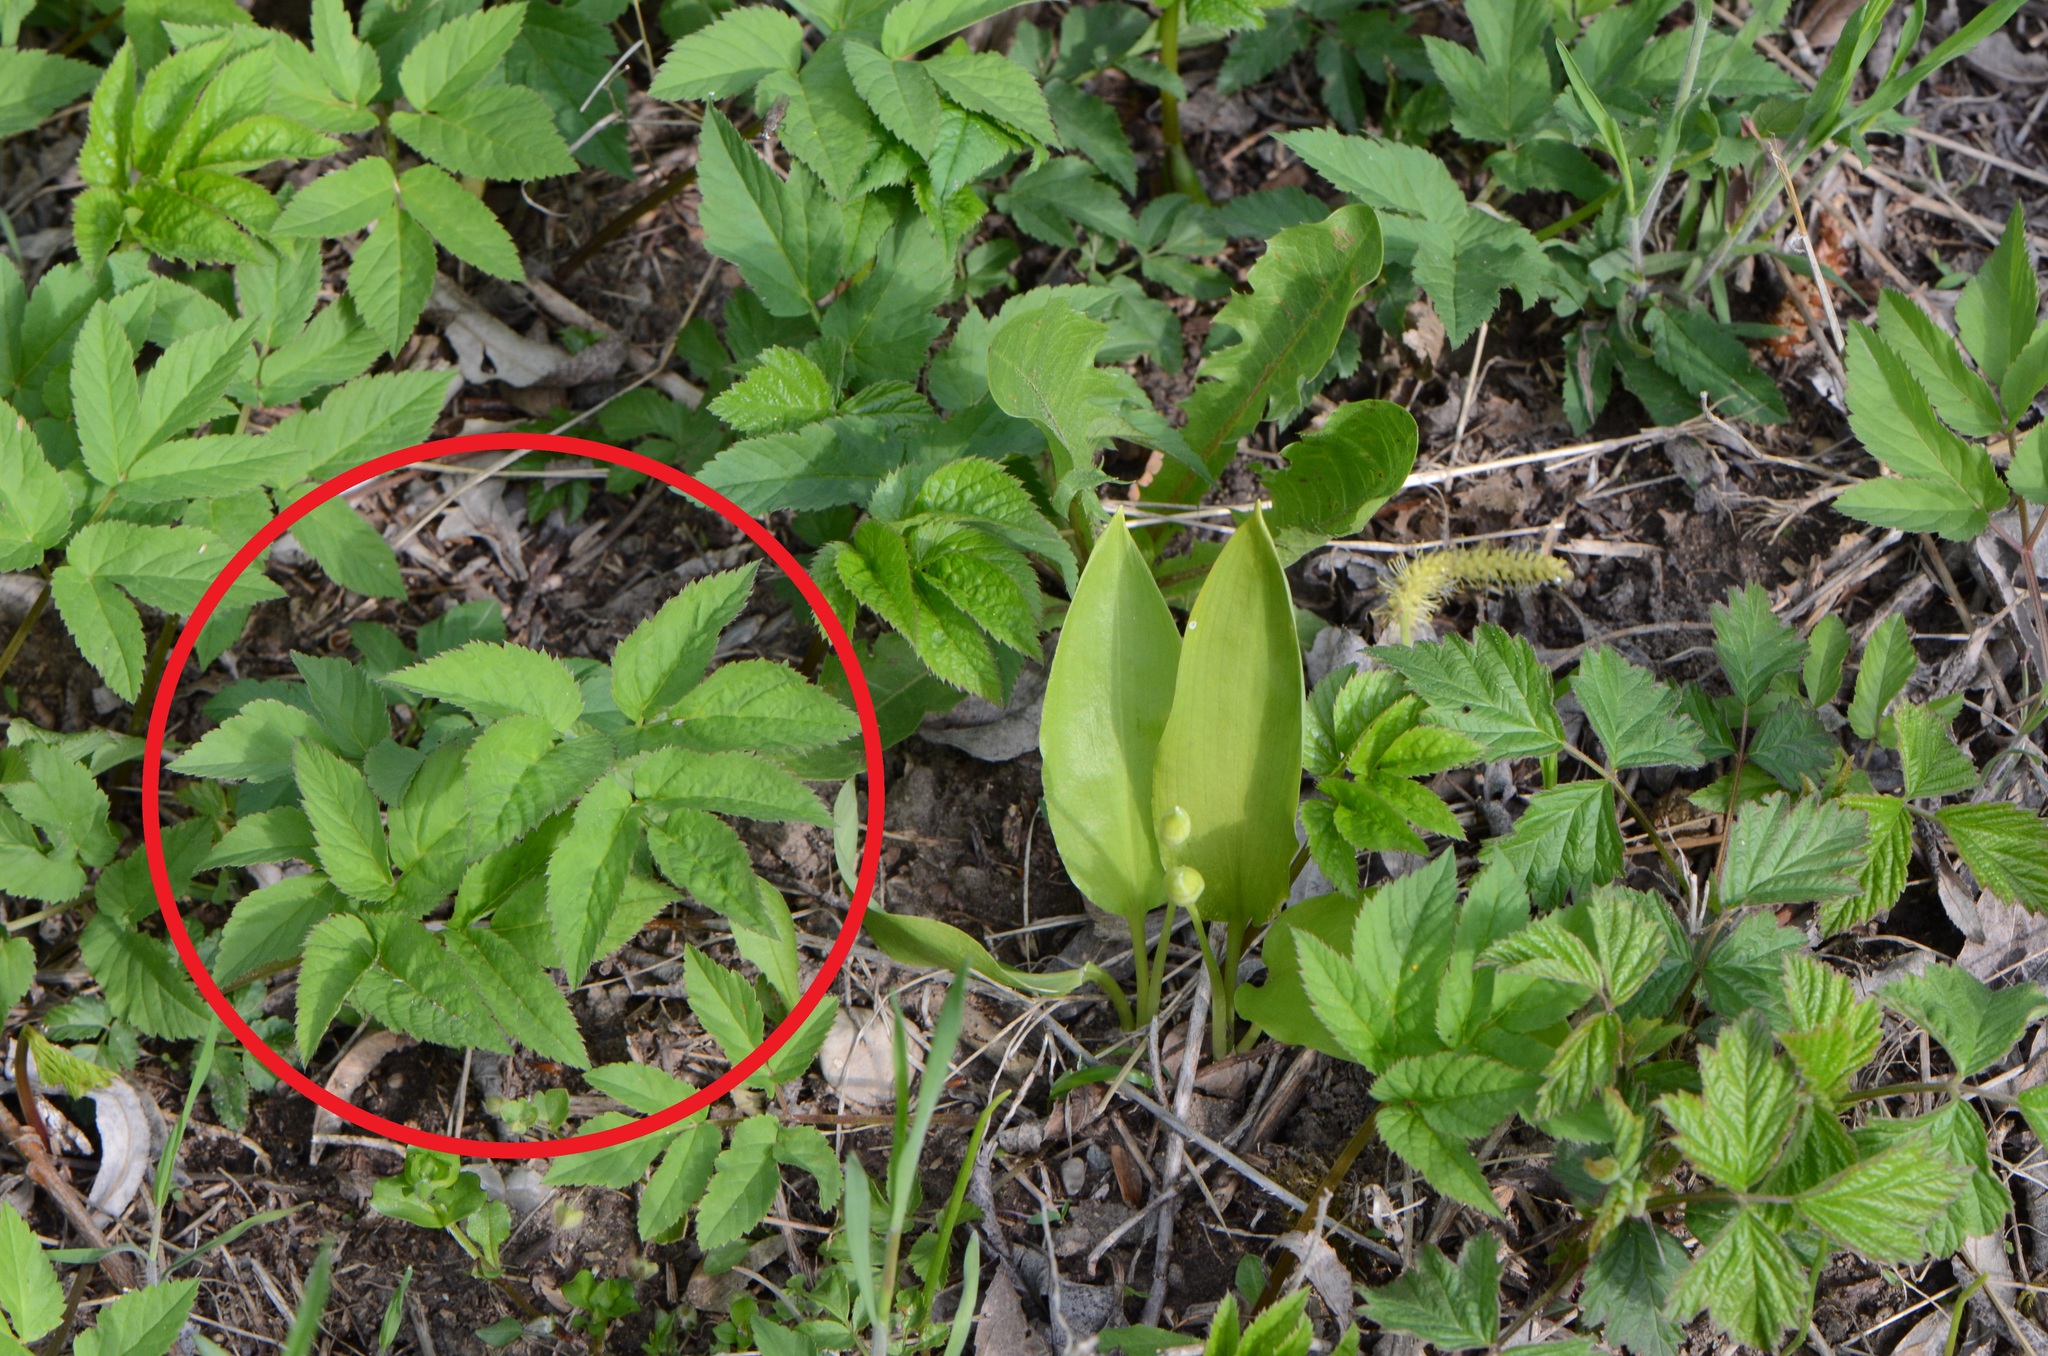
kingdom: Plantae
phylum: Tracheophyta
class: Magnoliopsida
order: Apiales
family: Apiaceae
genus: Aegopodium
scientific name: Aegopodium podagraria
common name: Ground-elder
